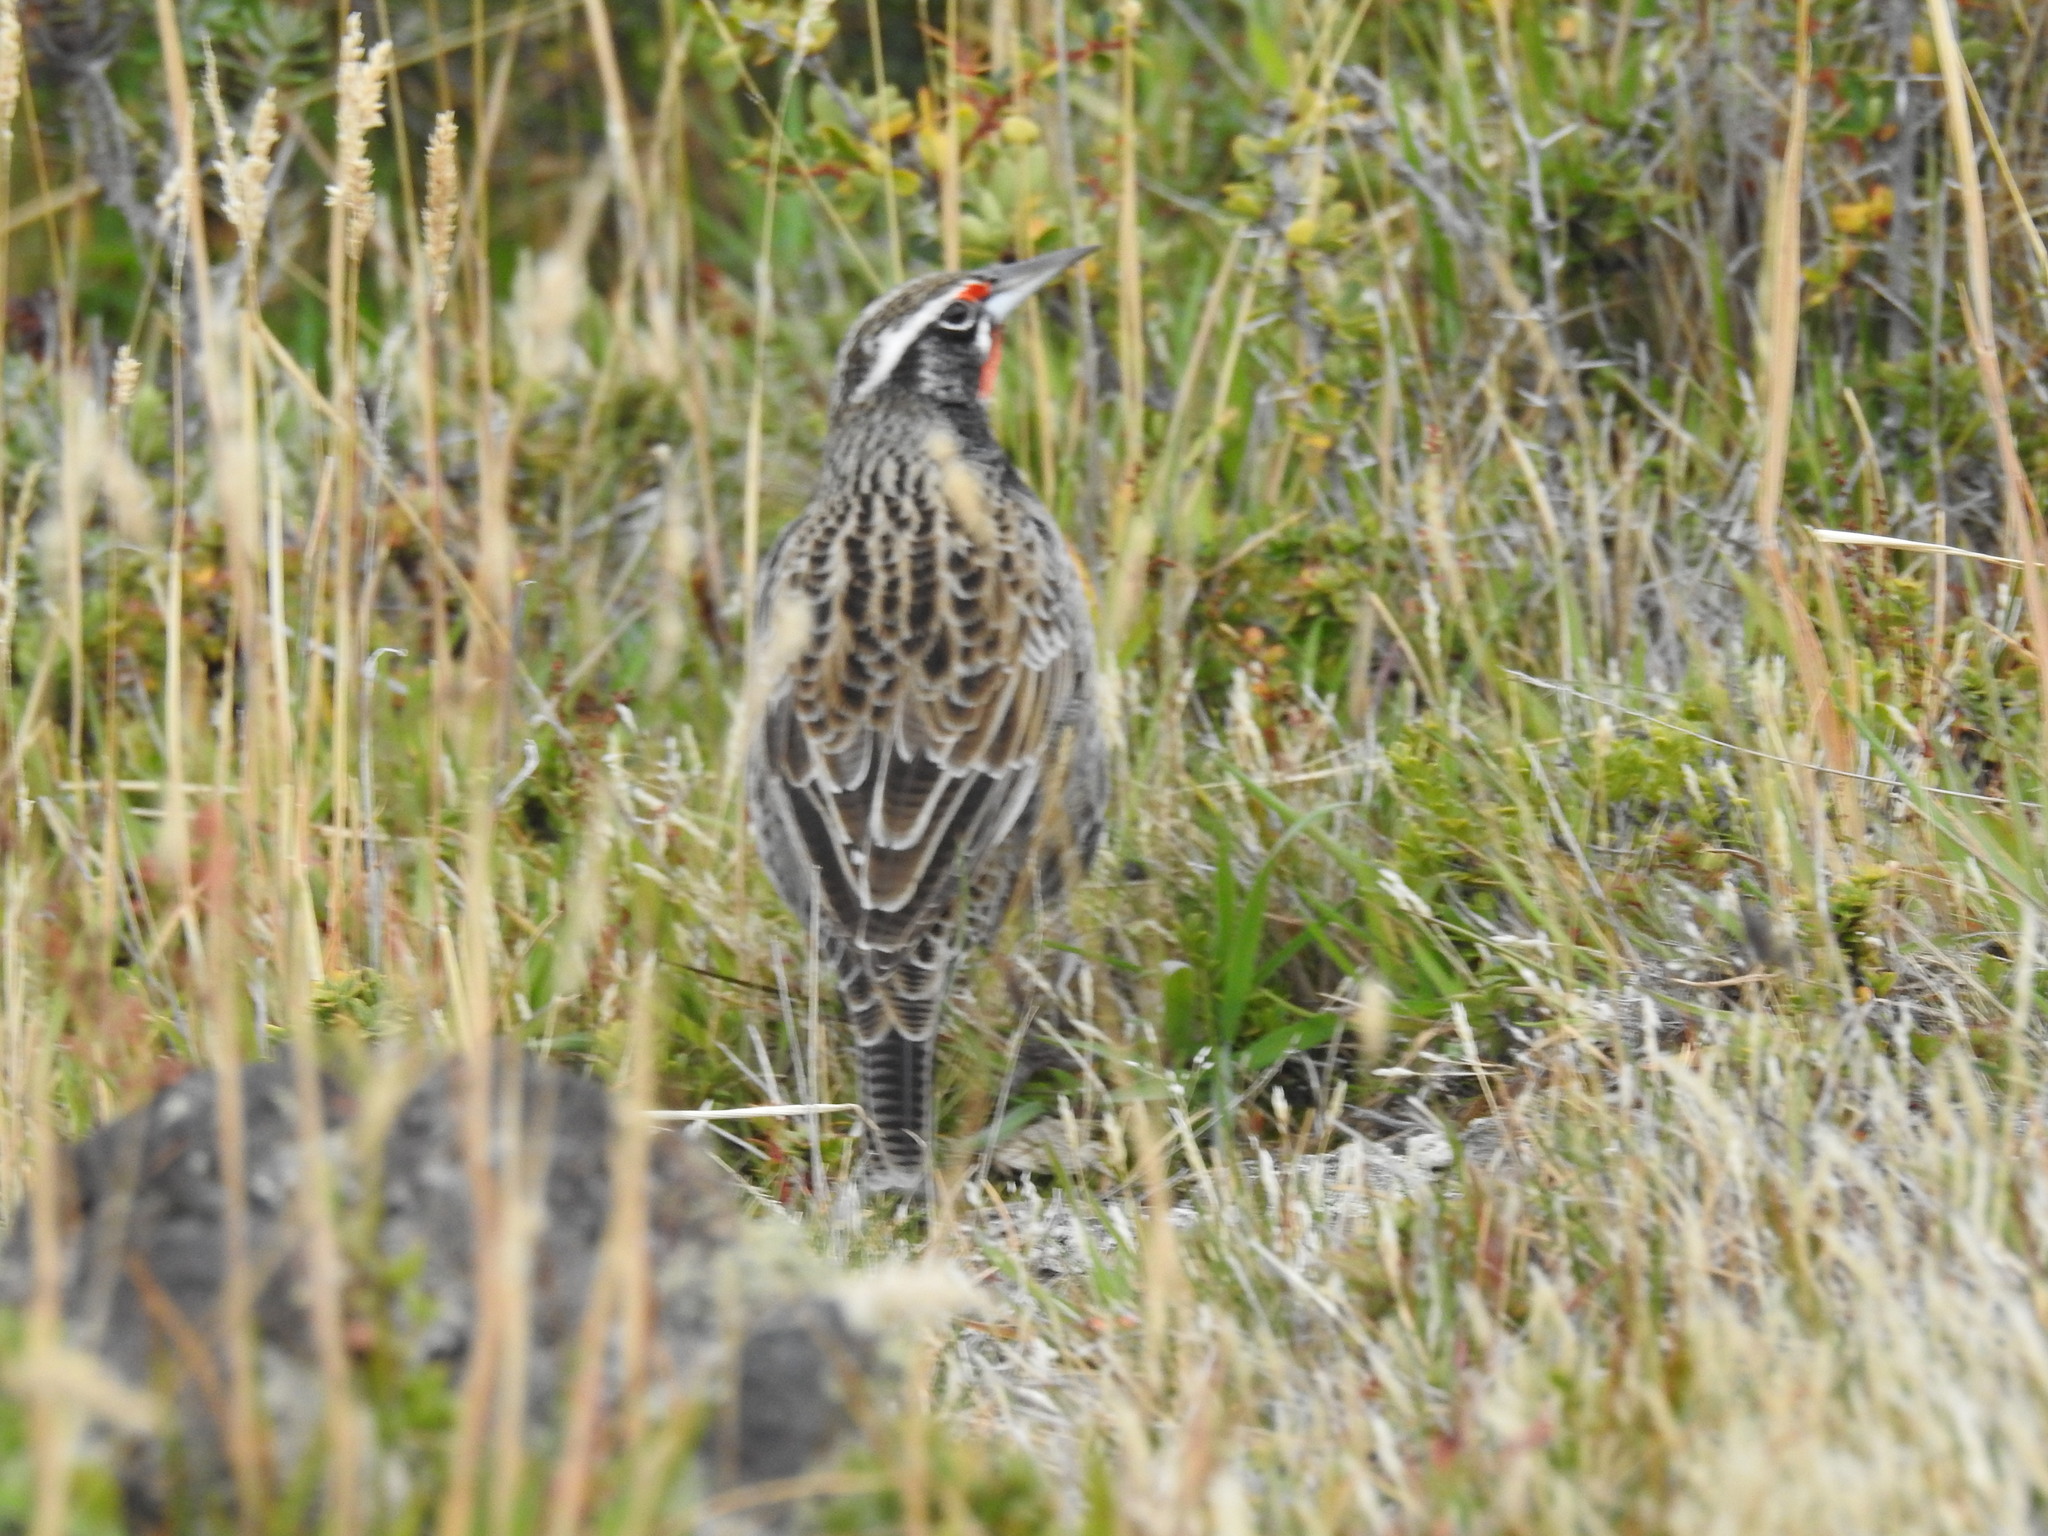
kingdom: Animalia
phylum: Chordata
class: Aves
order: Passeriformes
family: Icteridae
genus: Sturnella
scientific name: Sturnella loyca
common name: Long-tailed meadowlark
